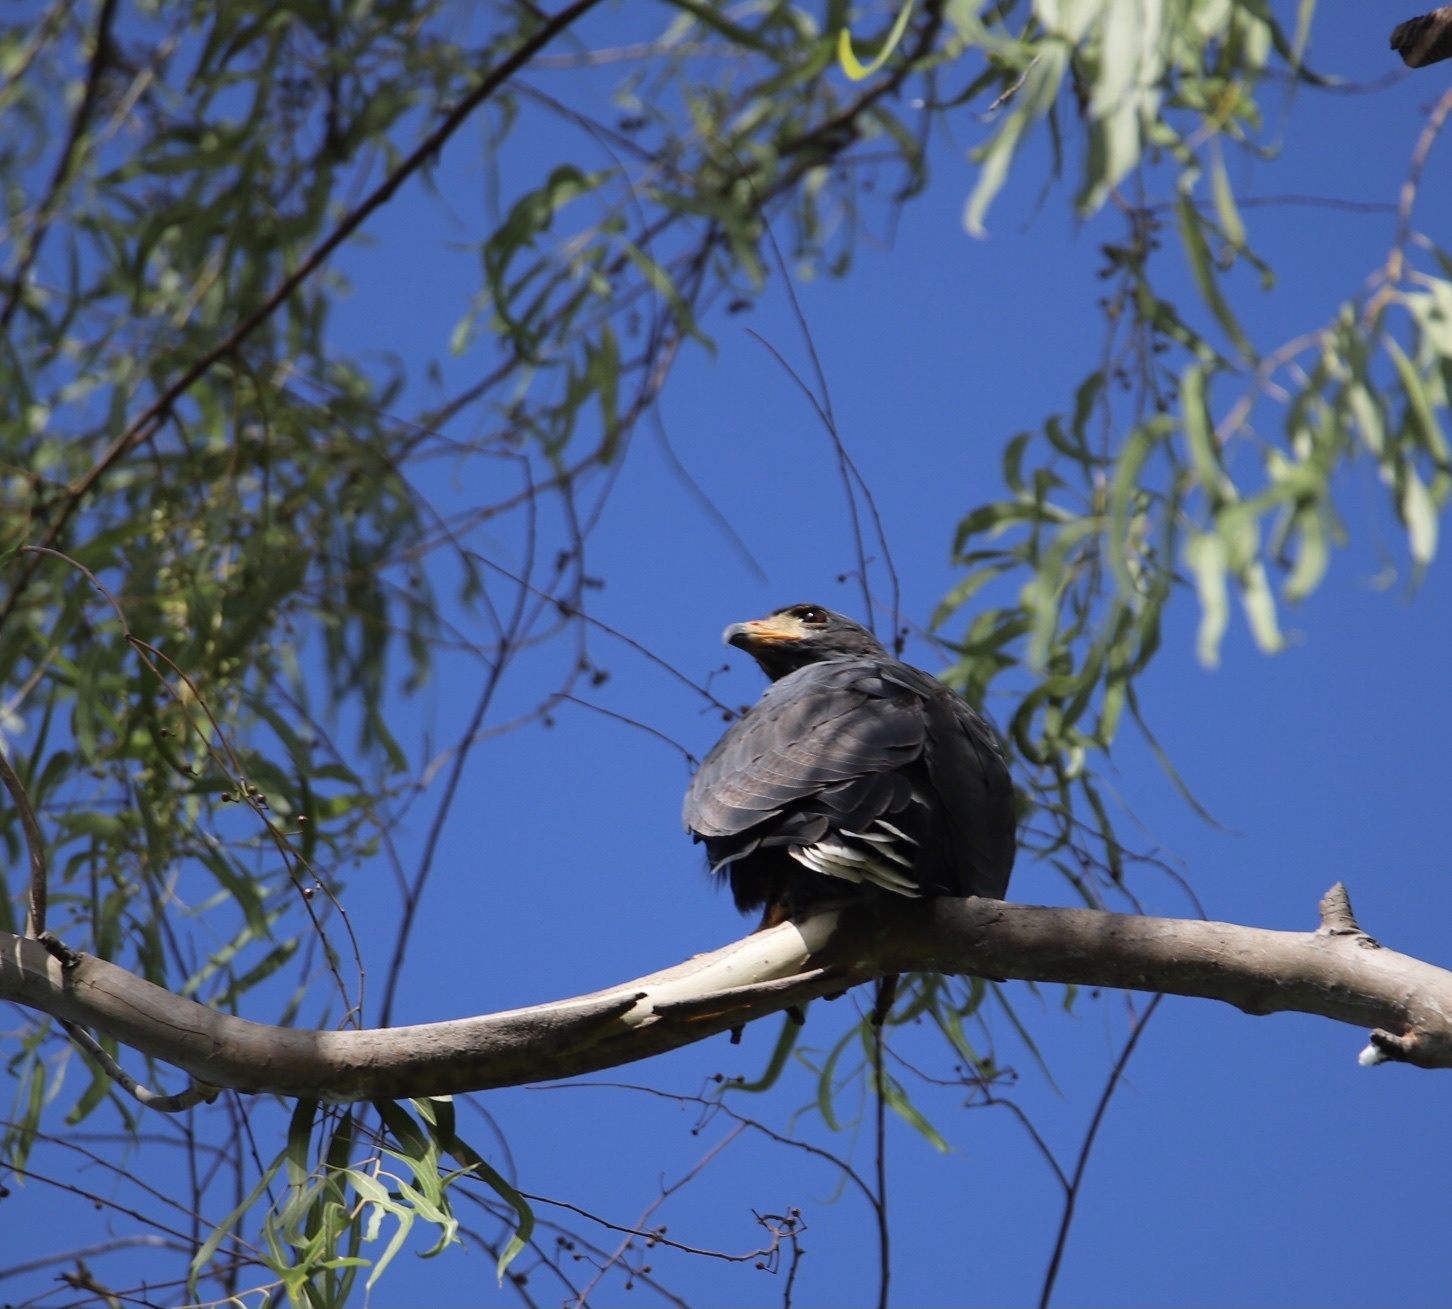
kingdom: Animalia
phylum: Chordata
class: Aves
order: Accipitriformes
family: Accipitridae
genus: Buteogallus
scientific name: Buteogallus anthracinus
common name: Common black hawk
